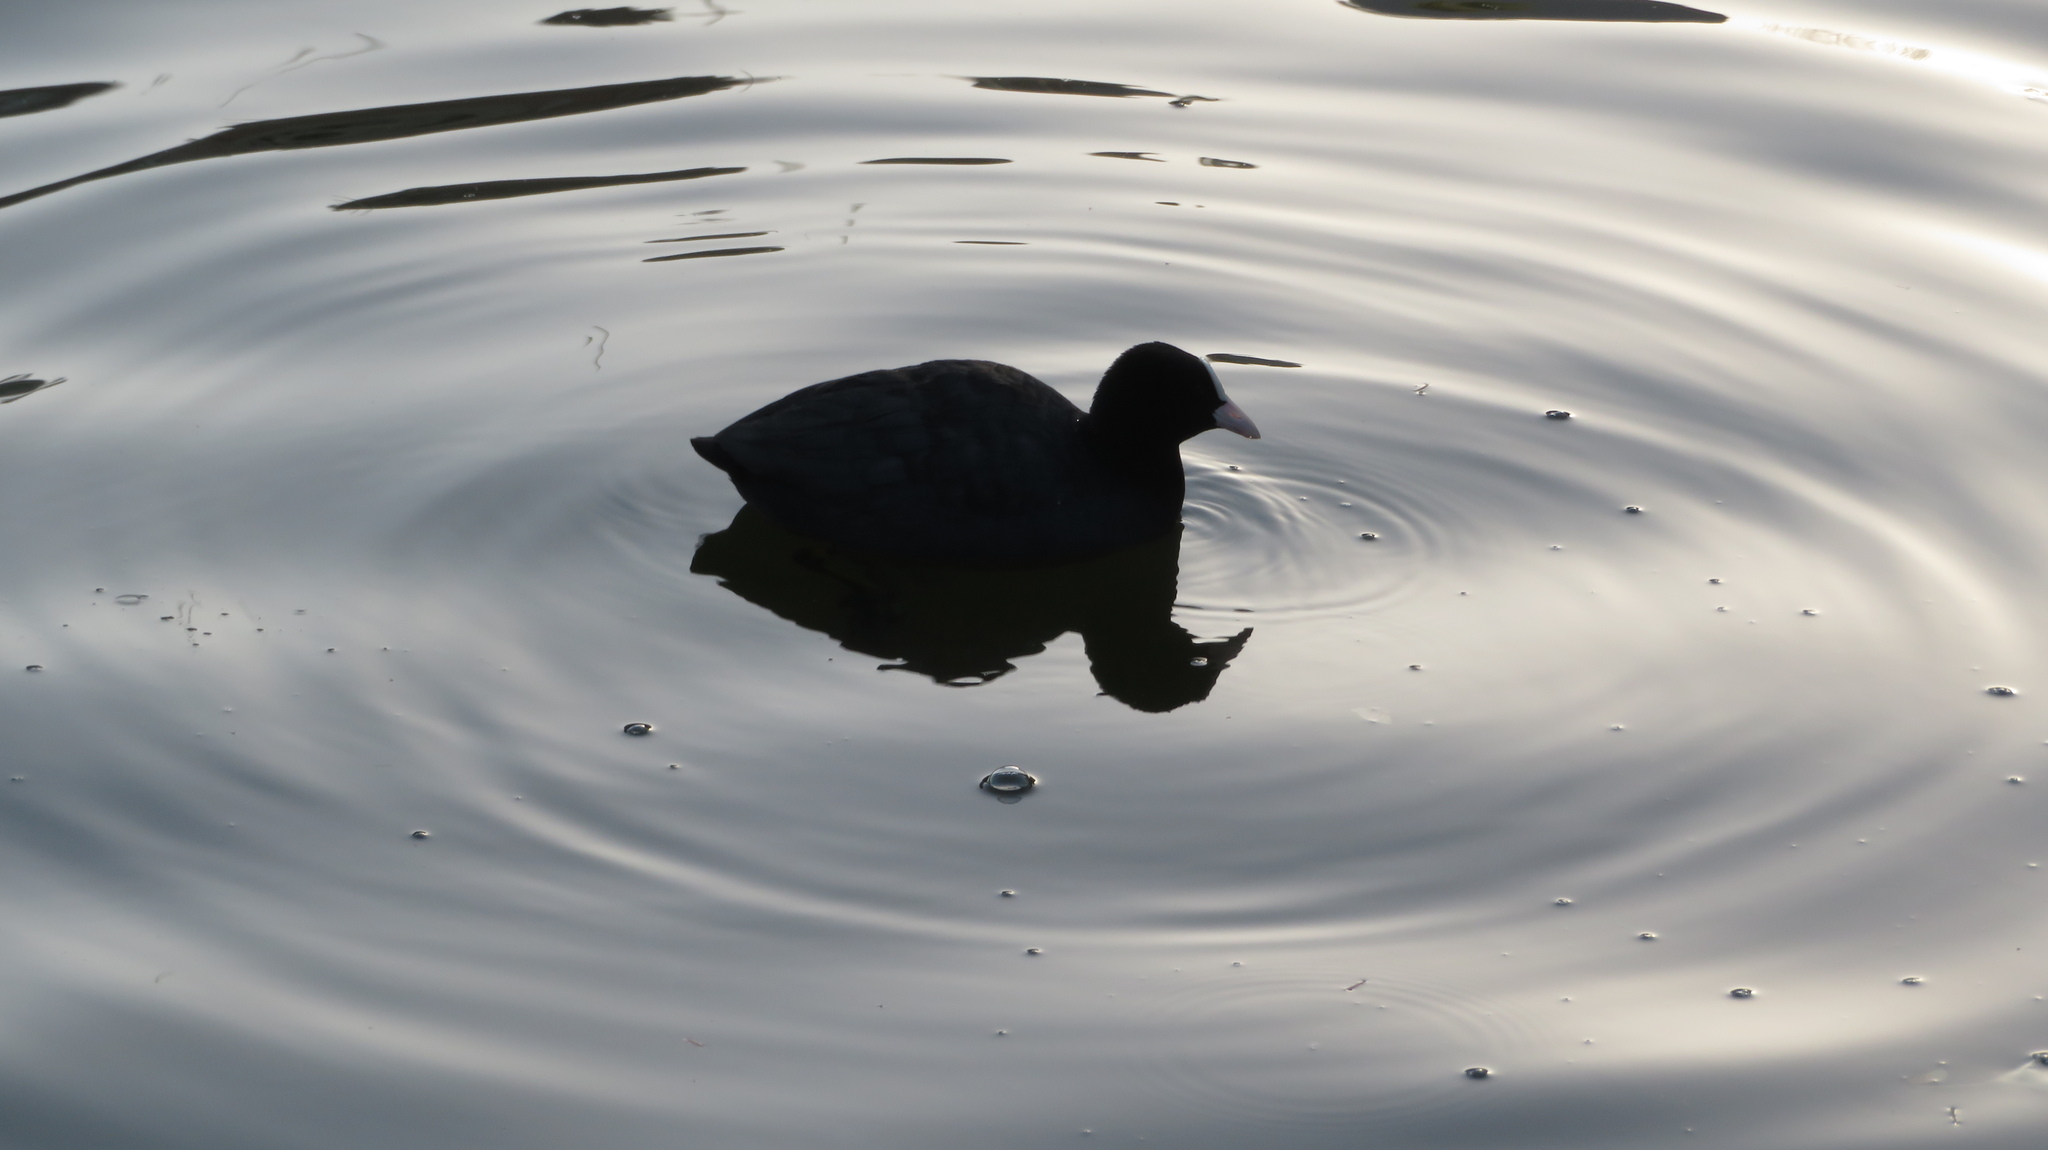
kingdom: Animalia
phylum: Chordata
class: Aves
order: Gruiformes
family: Rallidae
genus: Fulica
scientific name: Fulica atra
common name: Eurasian coot
